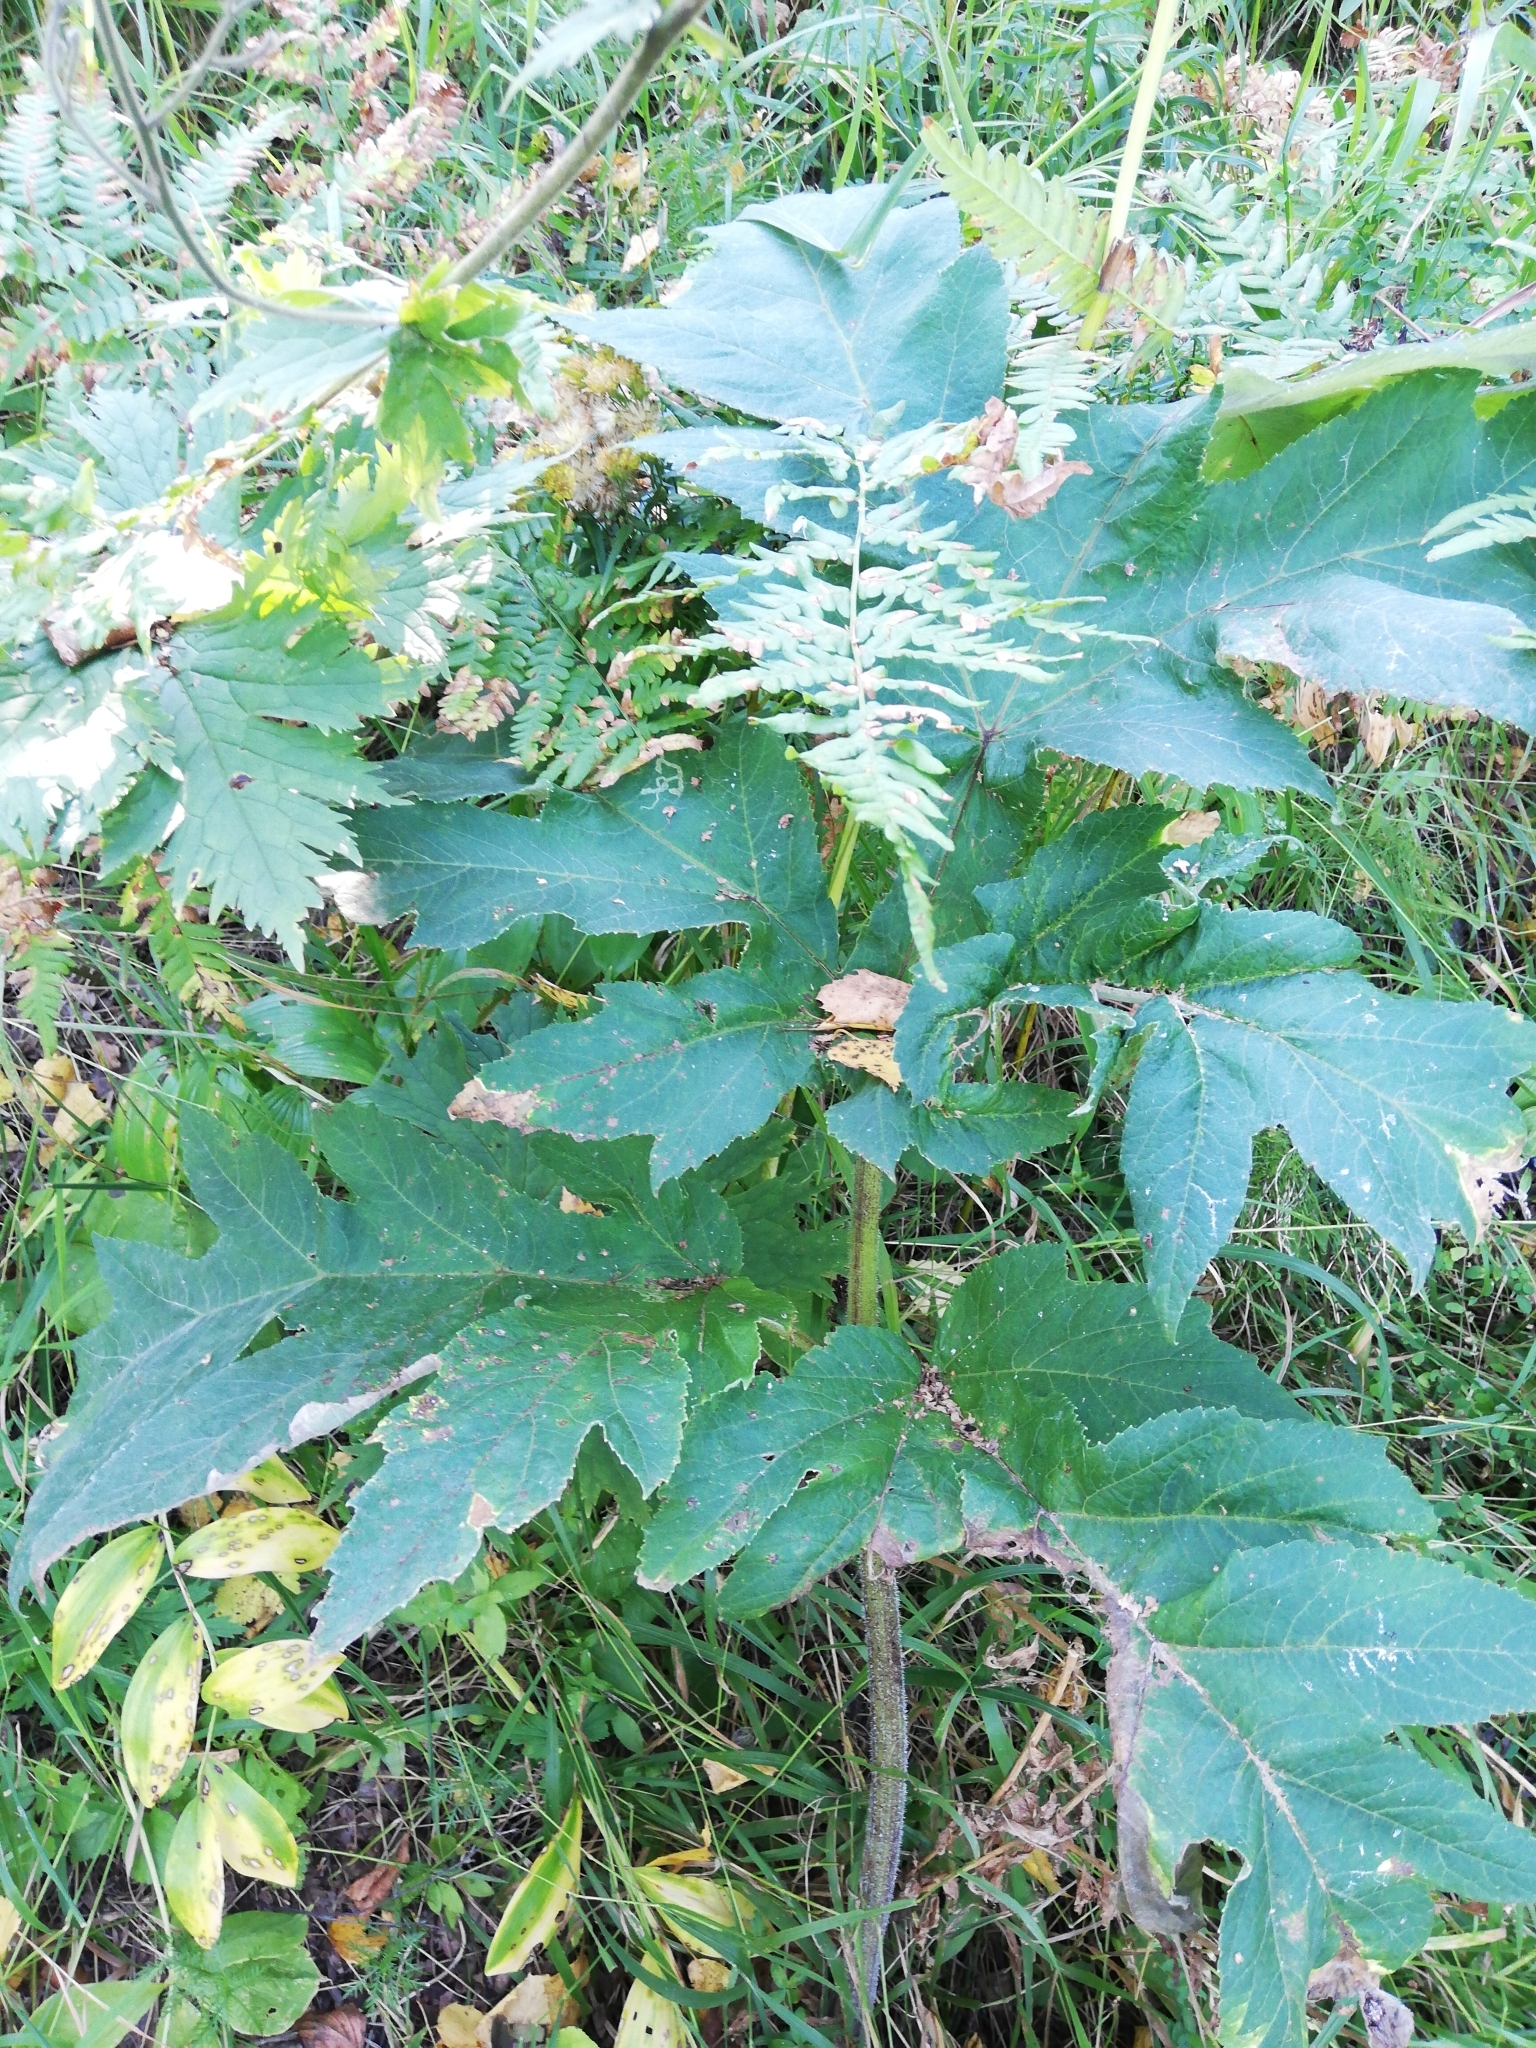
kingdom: Plantae
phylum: Tracheophyta
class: Magnoliopsida
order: Apiales
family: Apiaceae
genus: Heracleum
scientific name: Heracleum dissectum
